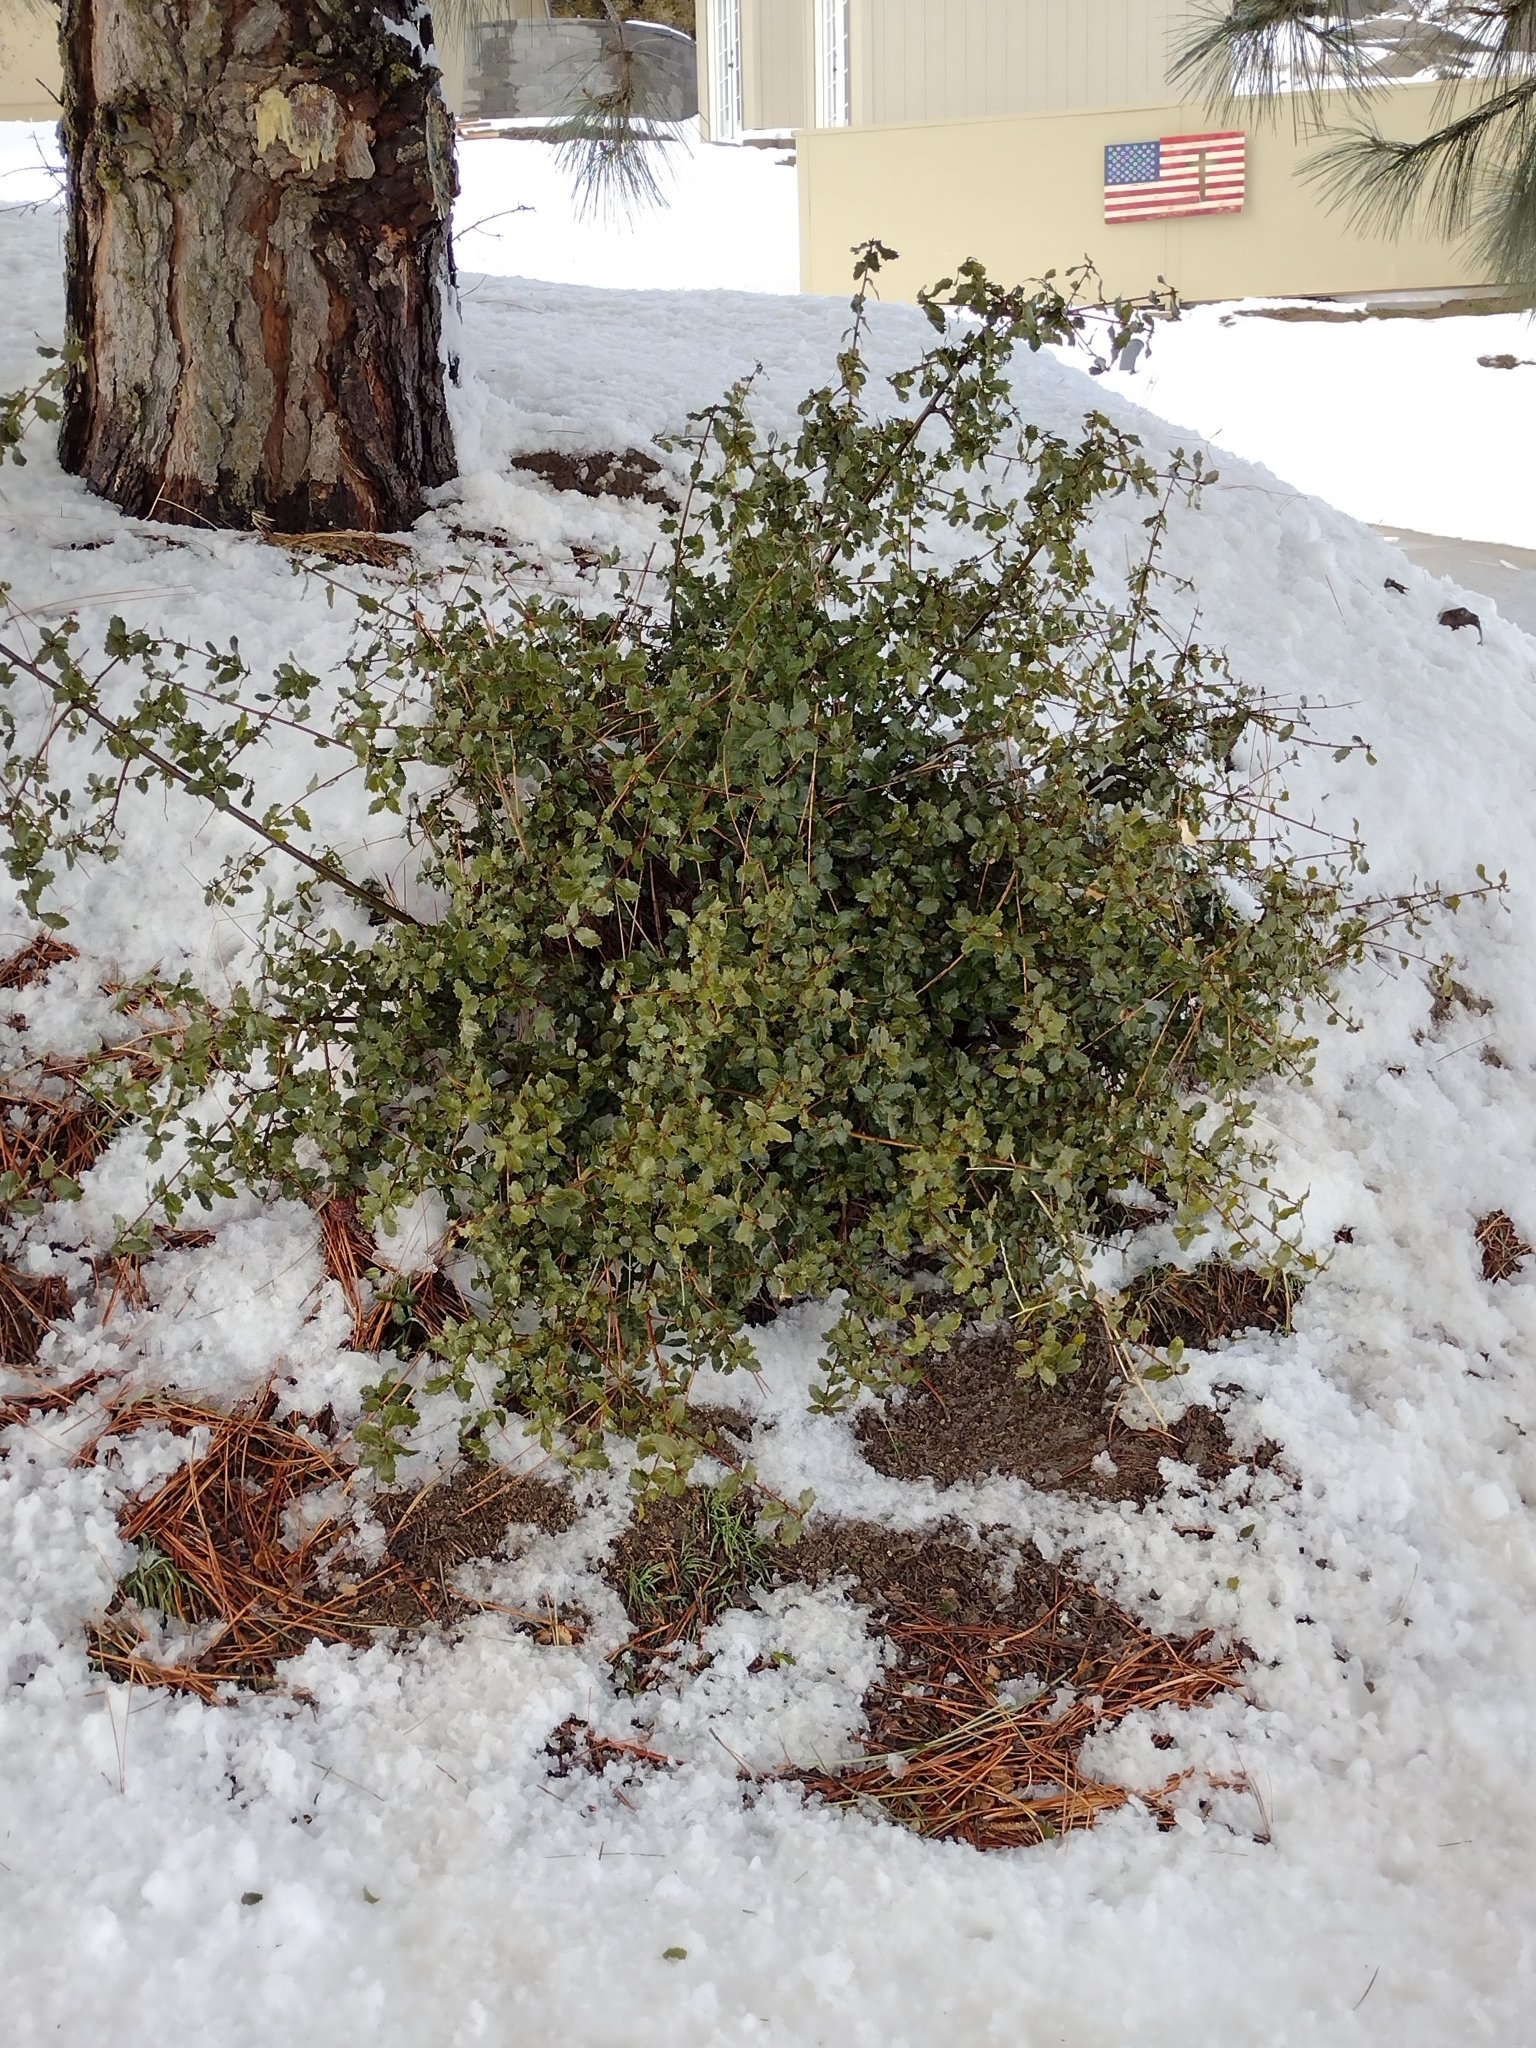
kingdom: Plantae
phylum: Tracheophyta
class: Magnoliopsida
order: Fagales
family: Fagaceae
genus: Quercus
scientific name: Quercus john-tuckeri
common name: Tucker's oak
